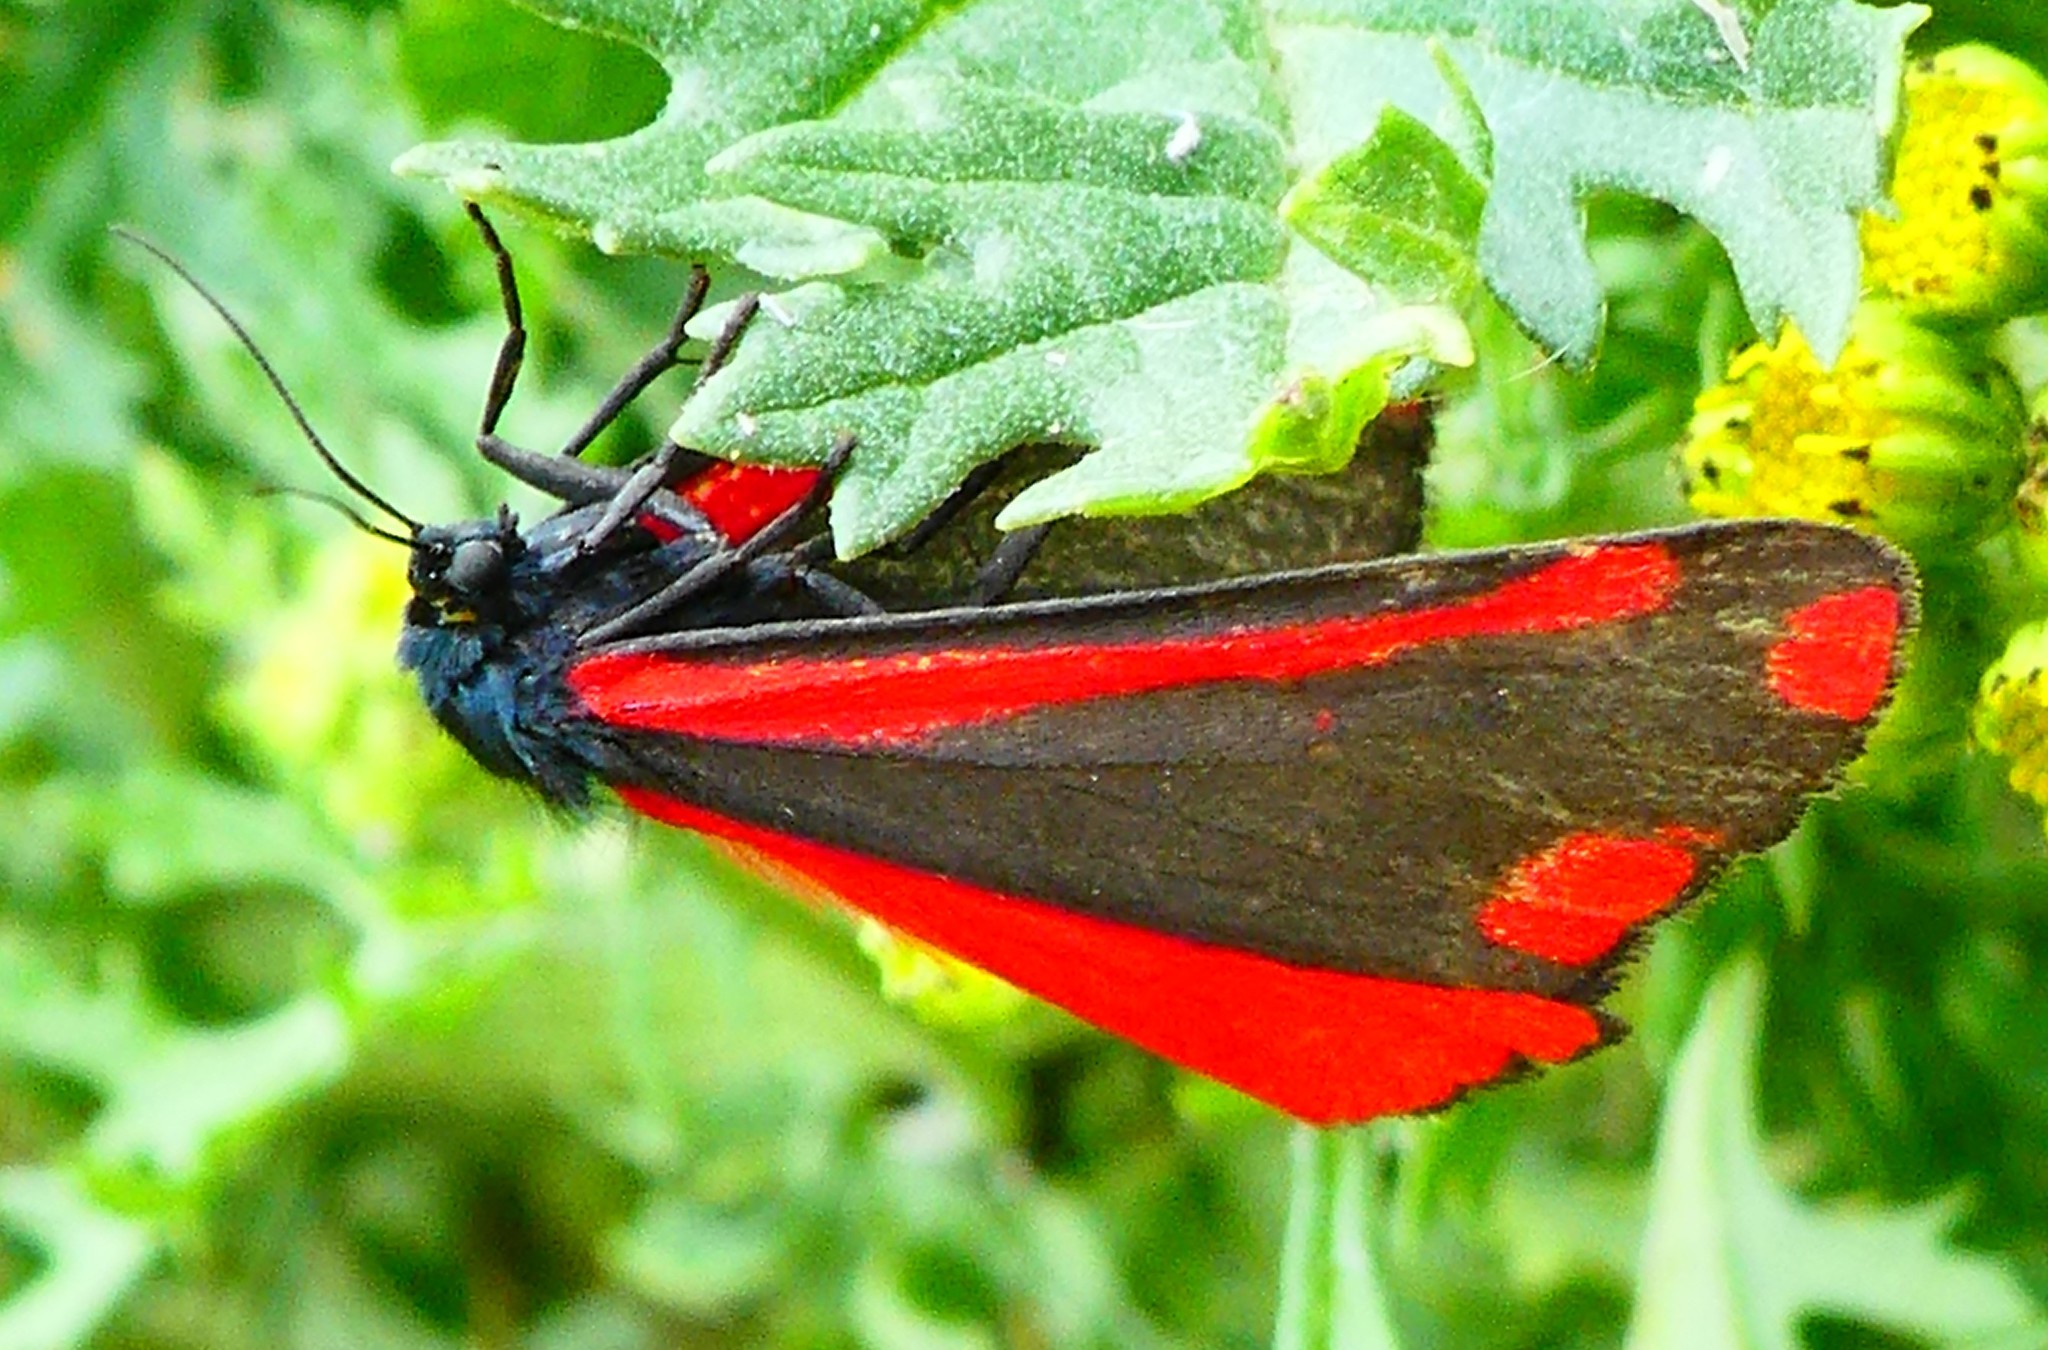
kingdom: Animalia
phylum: Arthropoda
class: Insecta
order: Lepidoptera
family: Erebidae
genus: Tyria
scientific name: Tyria jacobaeae
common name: Cinnabar
